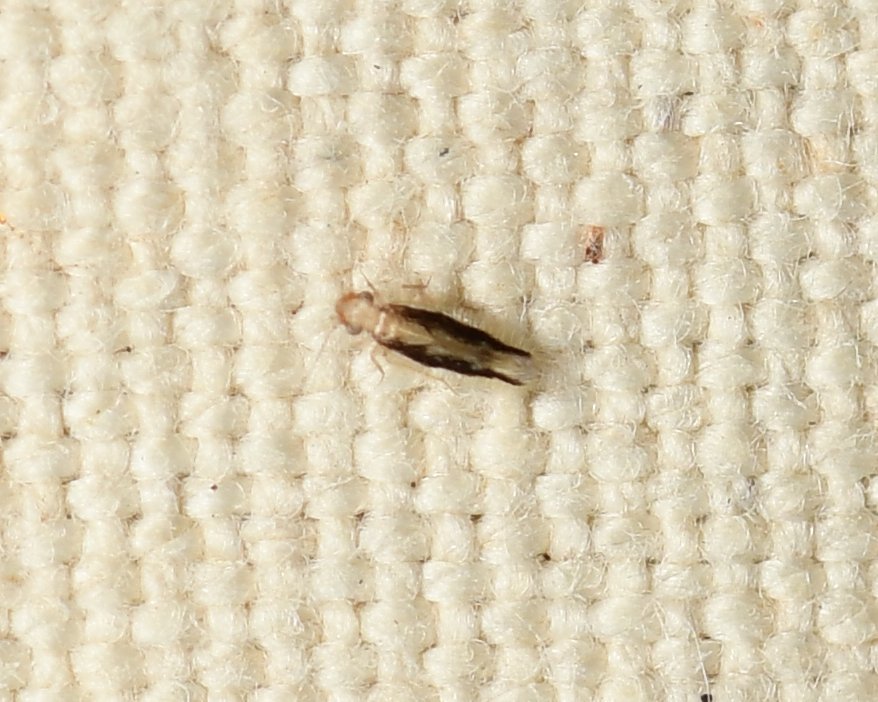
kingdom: Animalia
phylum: Arthropoda
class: Insecta
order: Psocodea
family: Lepidopsocidae
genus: Echmepteryx
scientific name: Echmepteryx madagascariensis
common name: Bark lice
